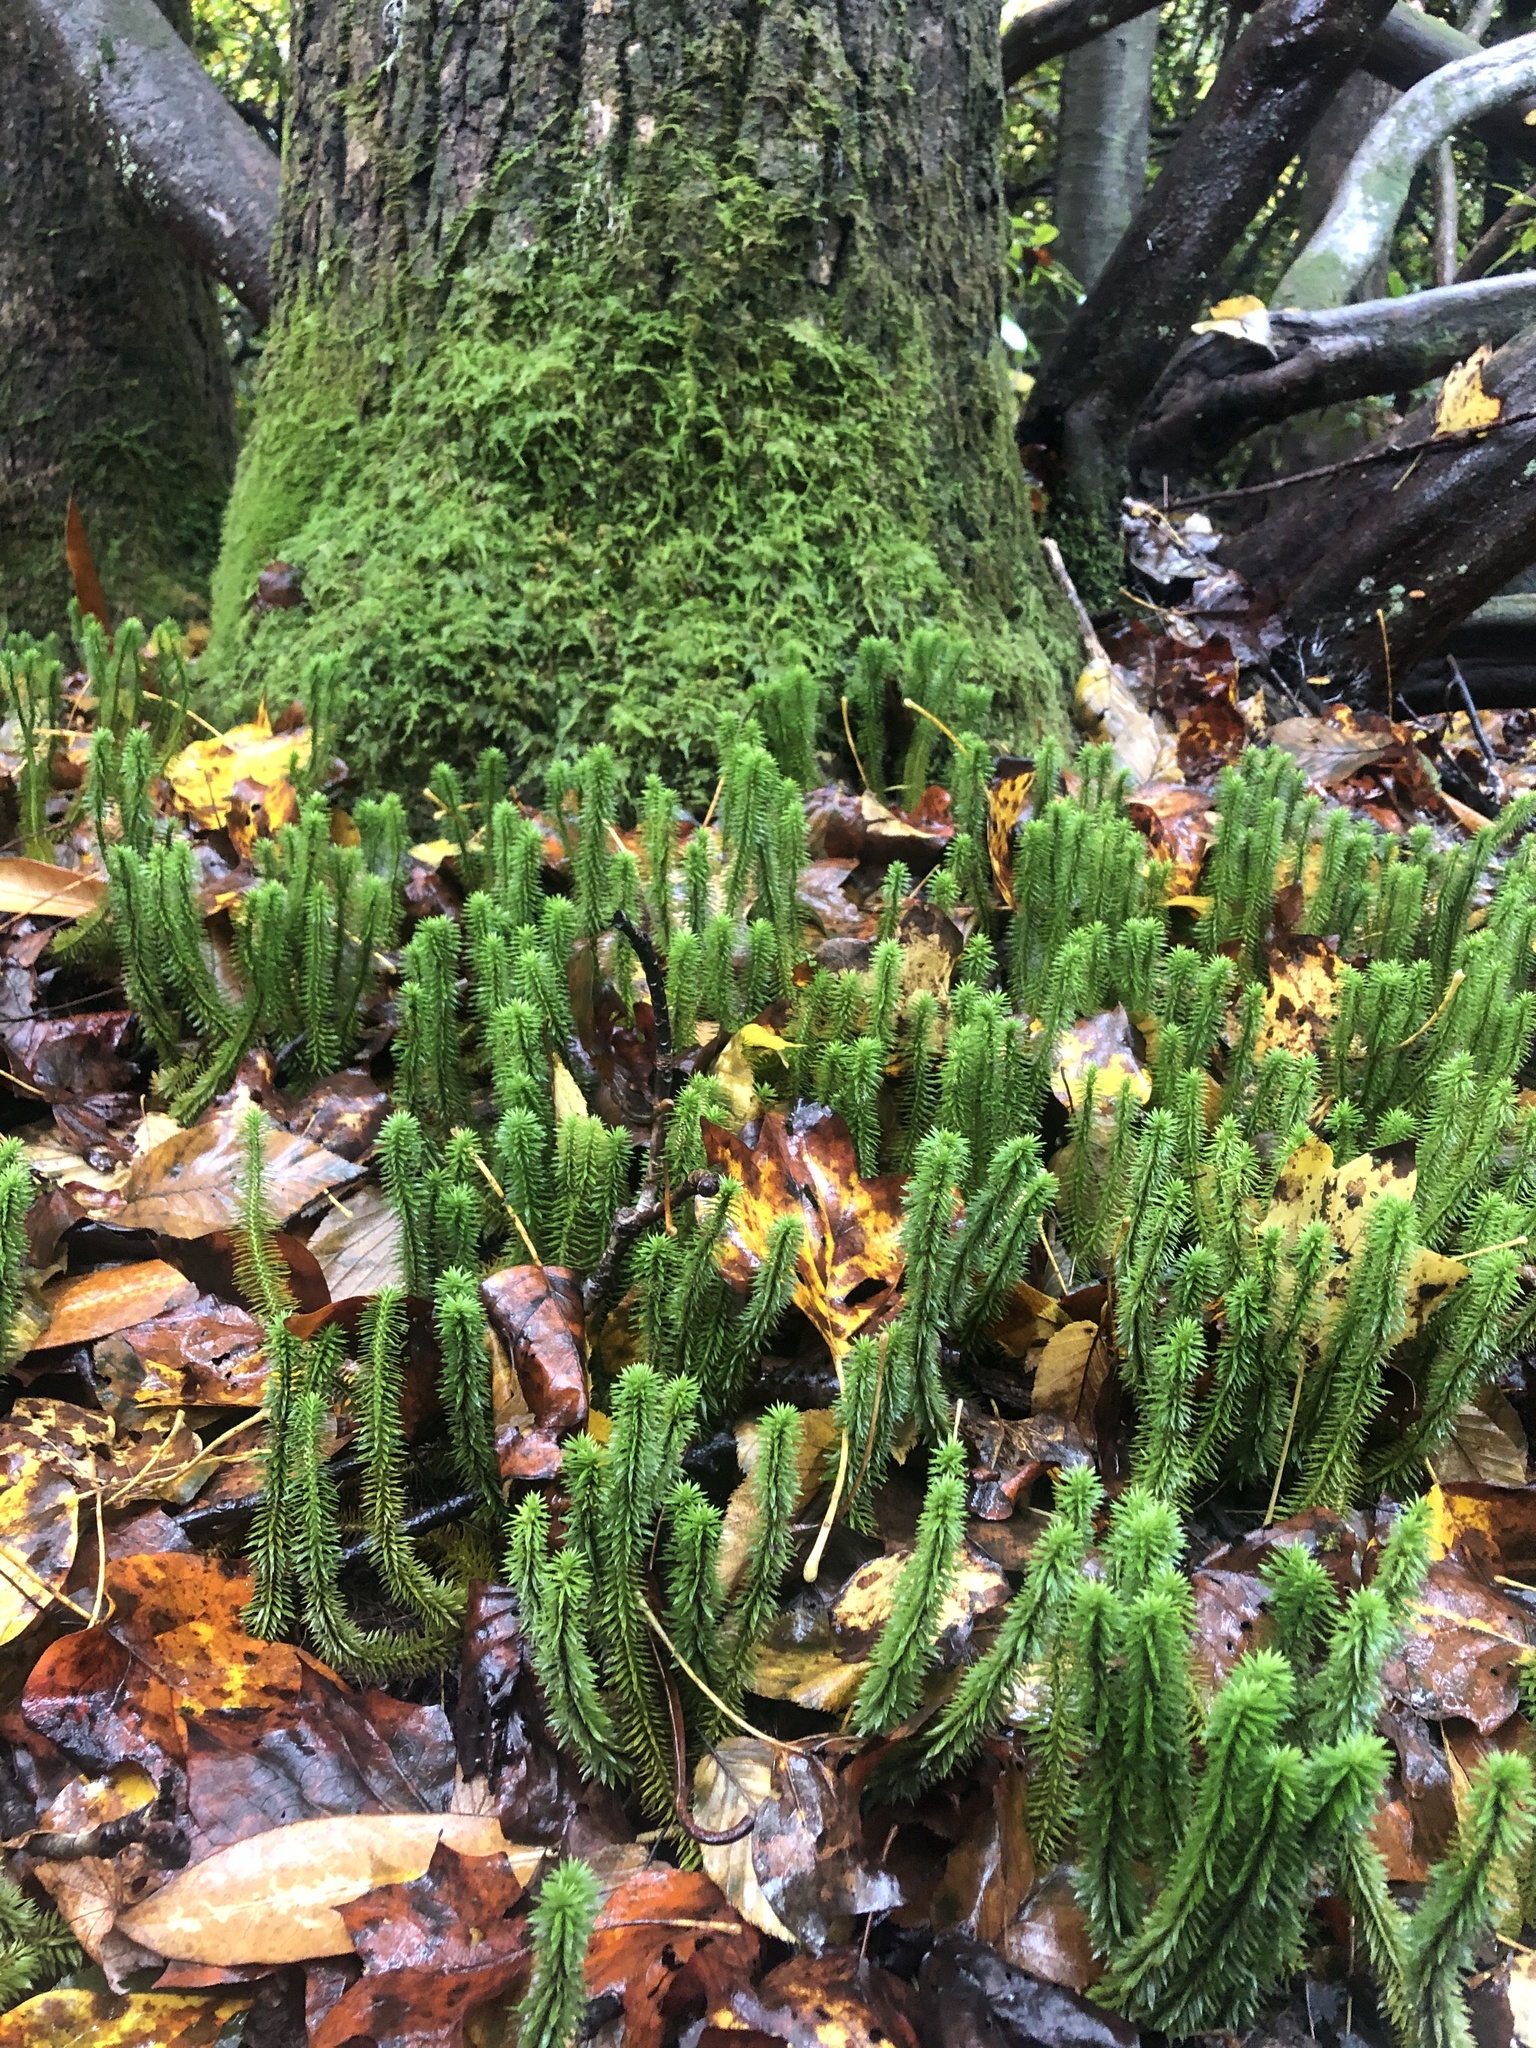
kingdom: Plantae
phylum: Tracheophyta
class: Lycopodiopsida
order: Lycopodiales
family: Lycopodiaceae
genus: Huperzia
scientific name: Huperzia lucidula
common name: Shining clubmoss
